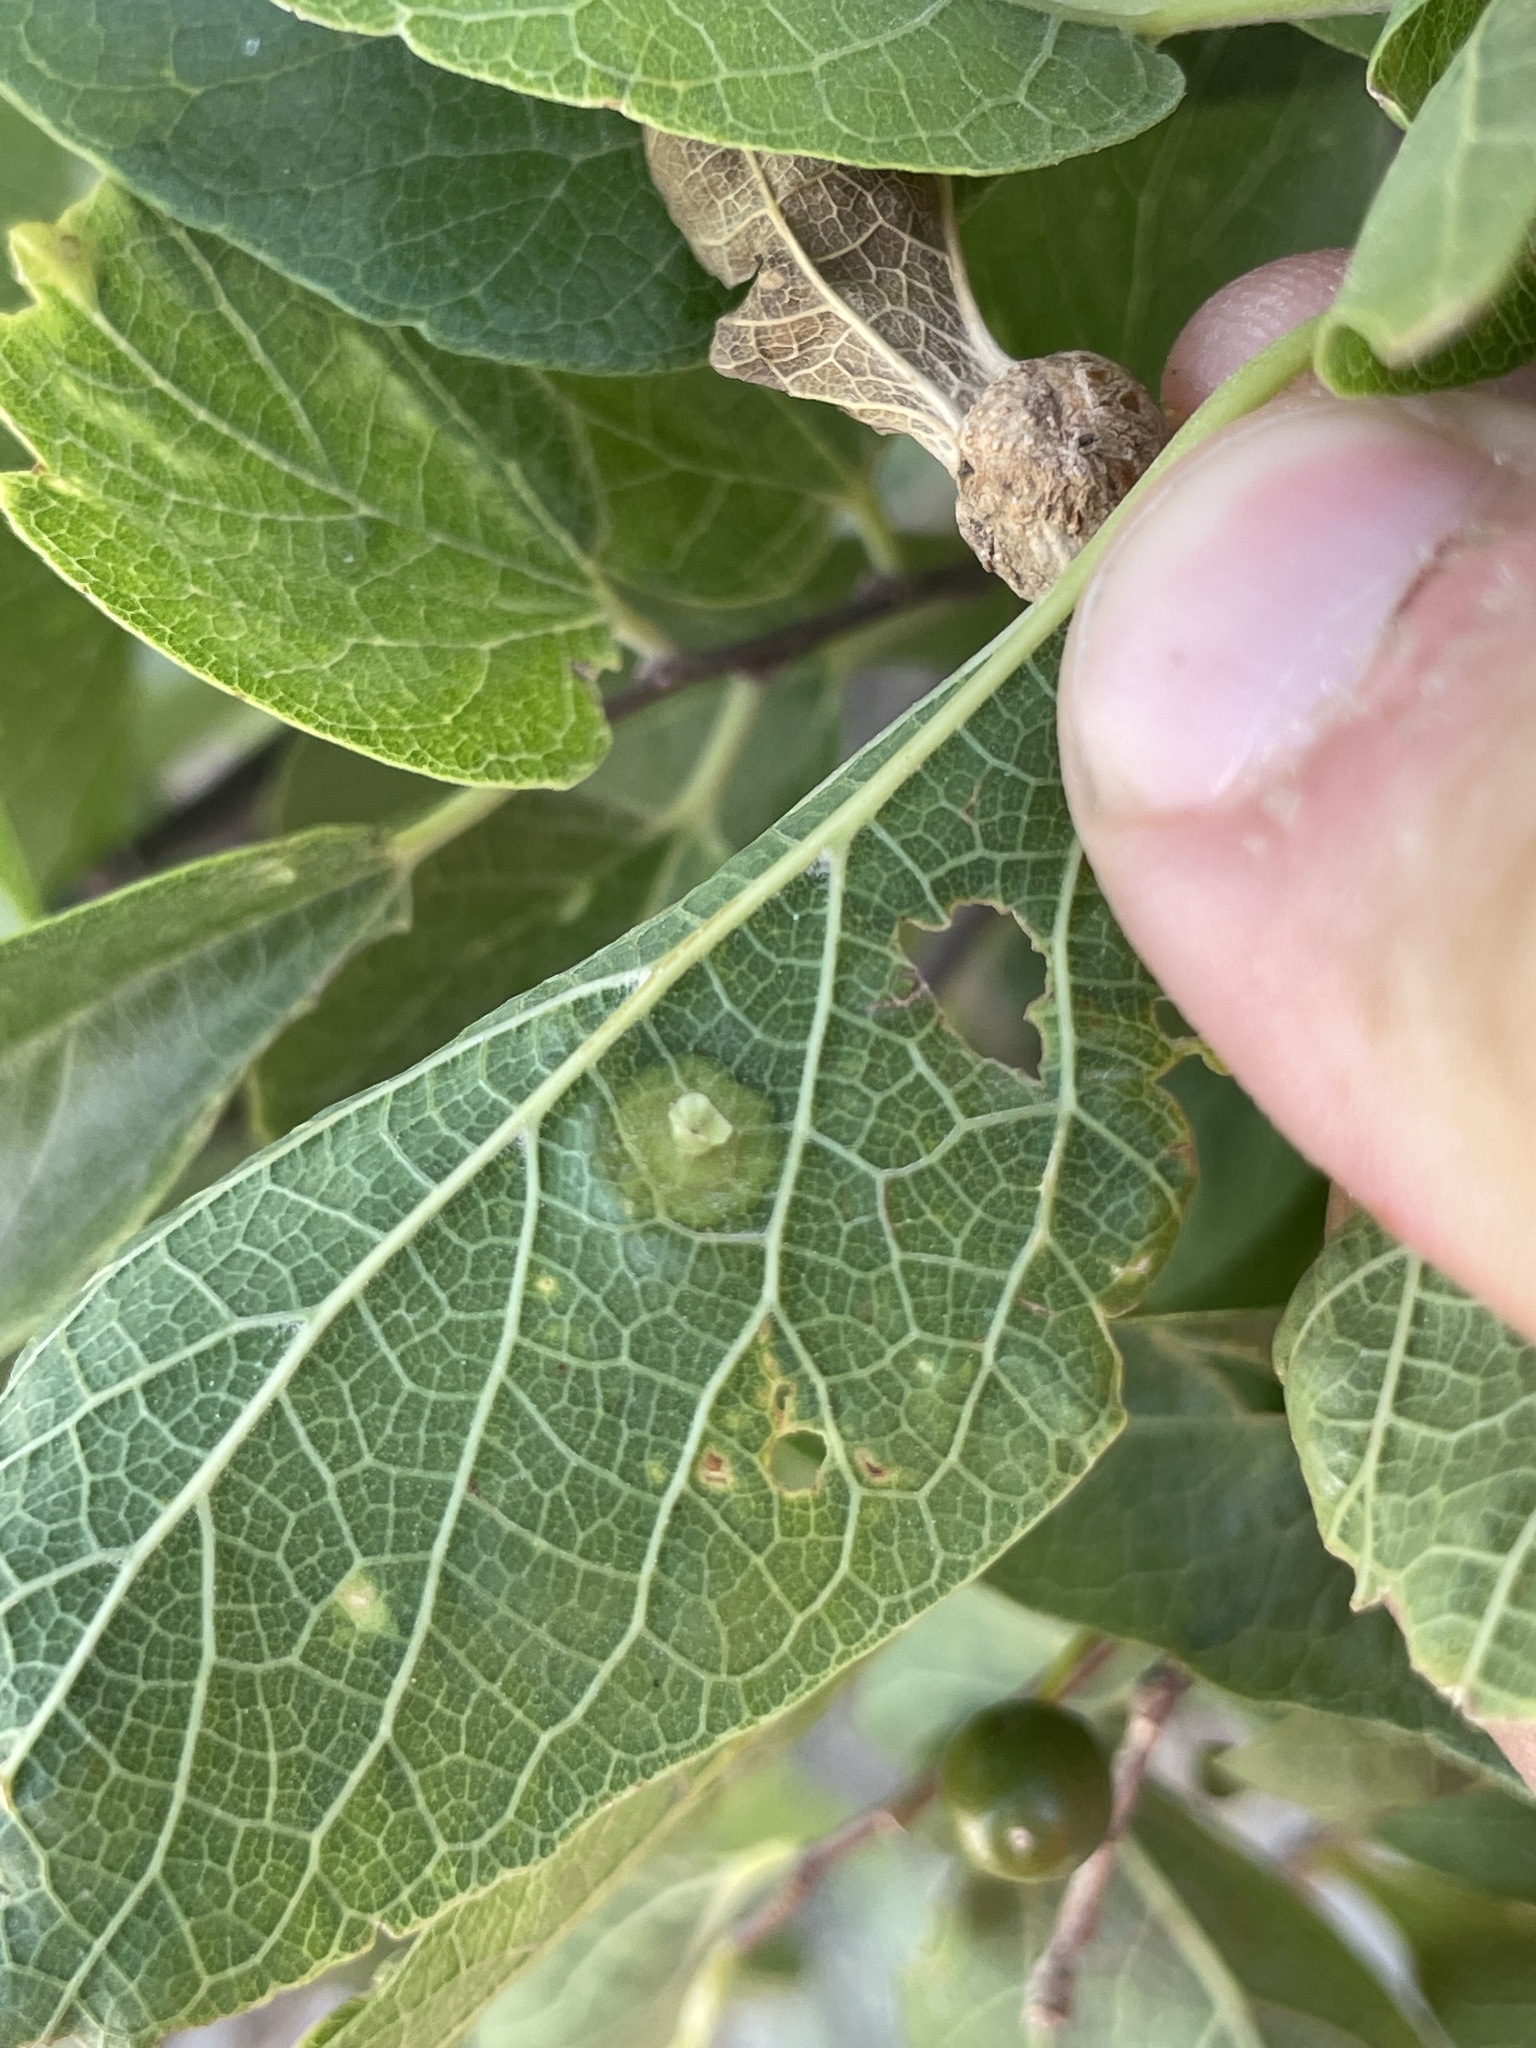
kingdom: Animalia
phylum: Arthropoda
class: Insecta
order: Hemiptera
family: Aphalaridae
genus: Pachypsylla
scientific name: Pachypsylla celtidisasterisca
